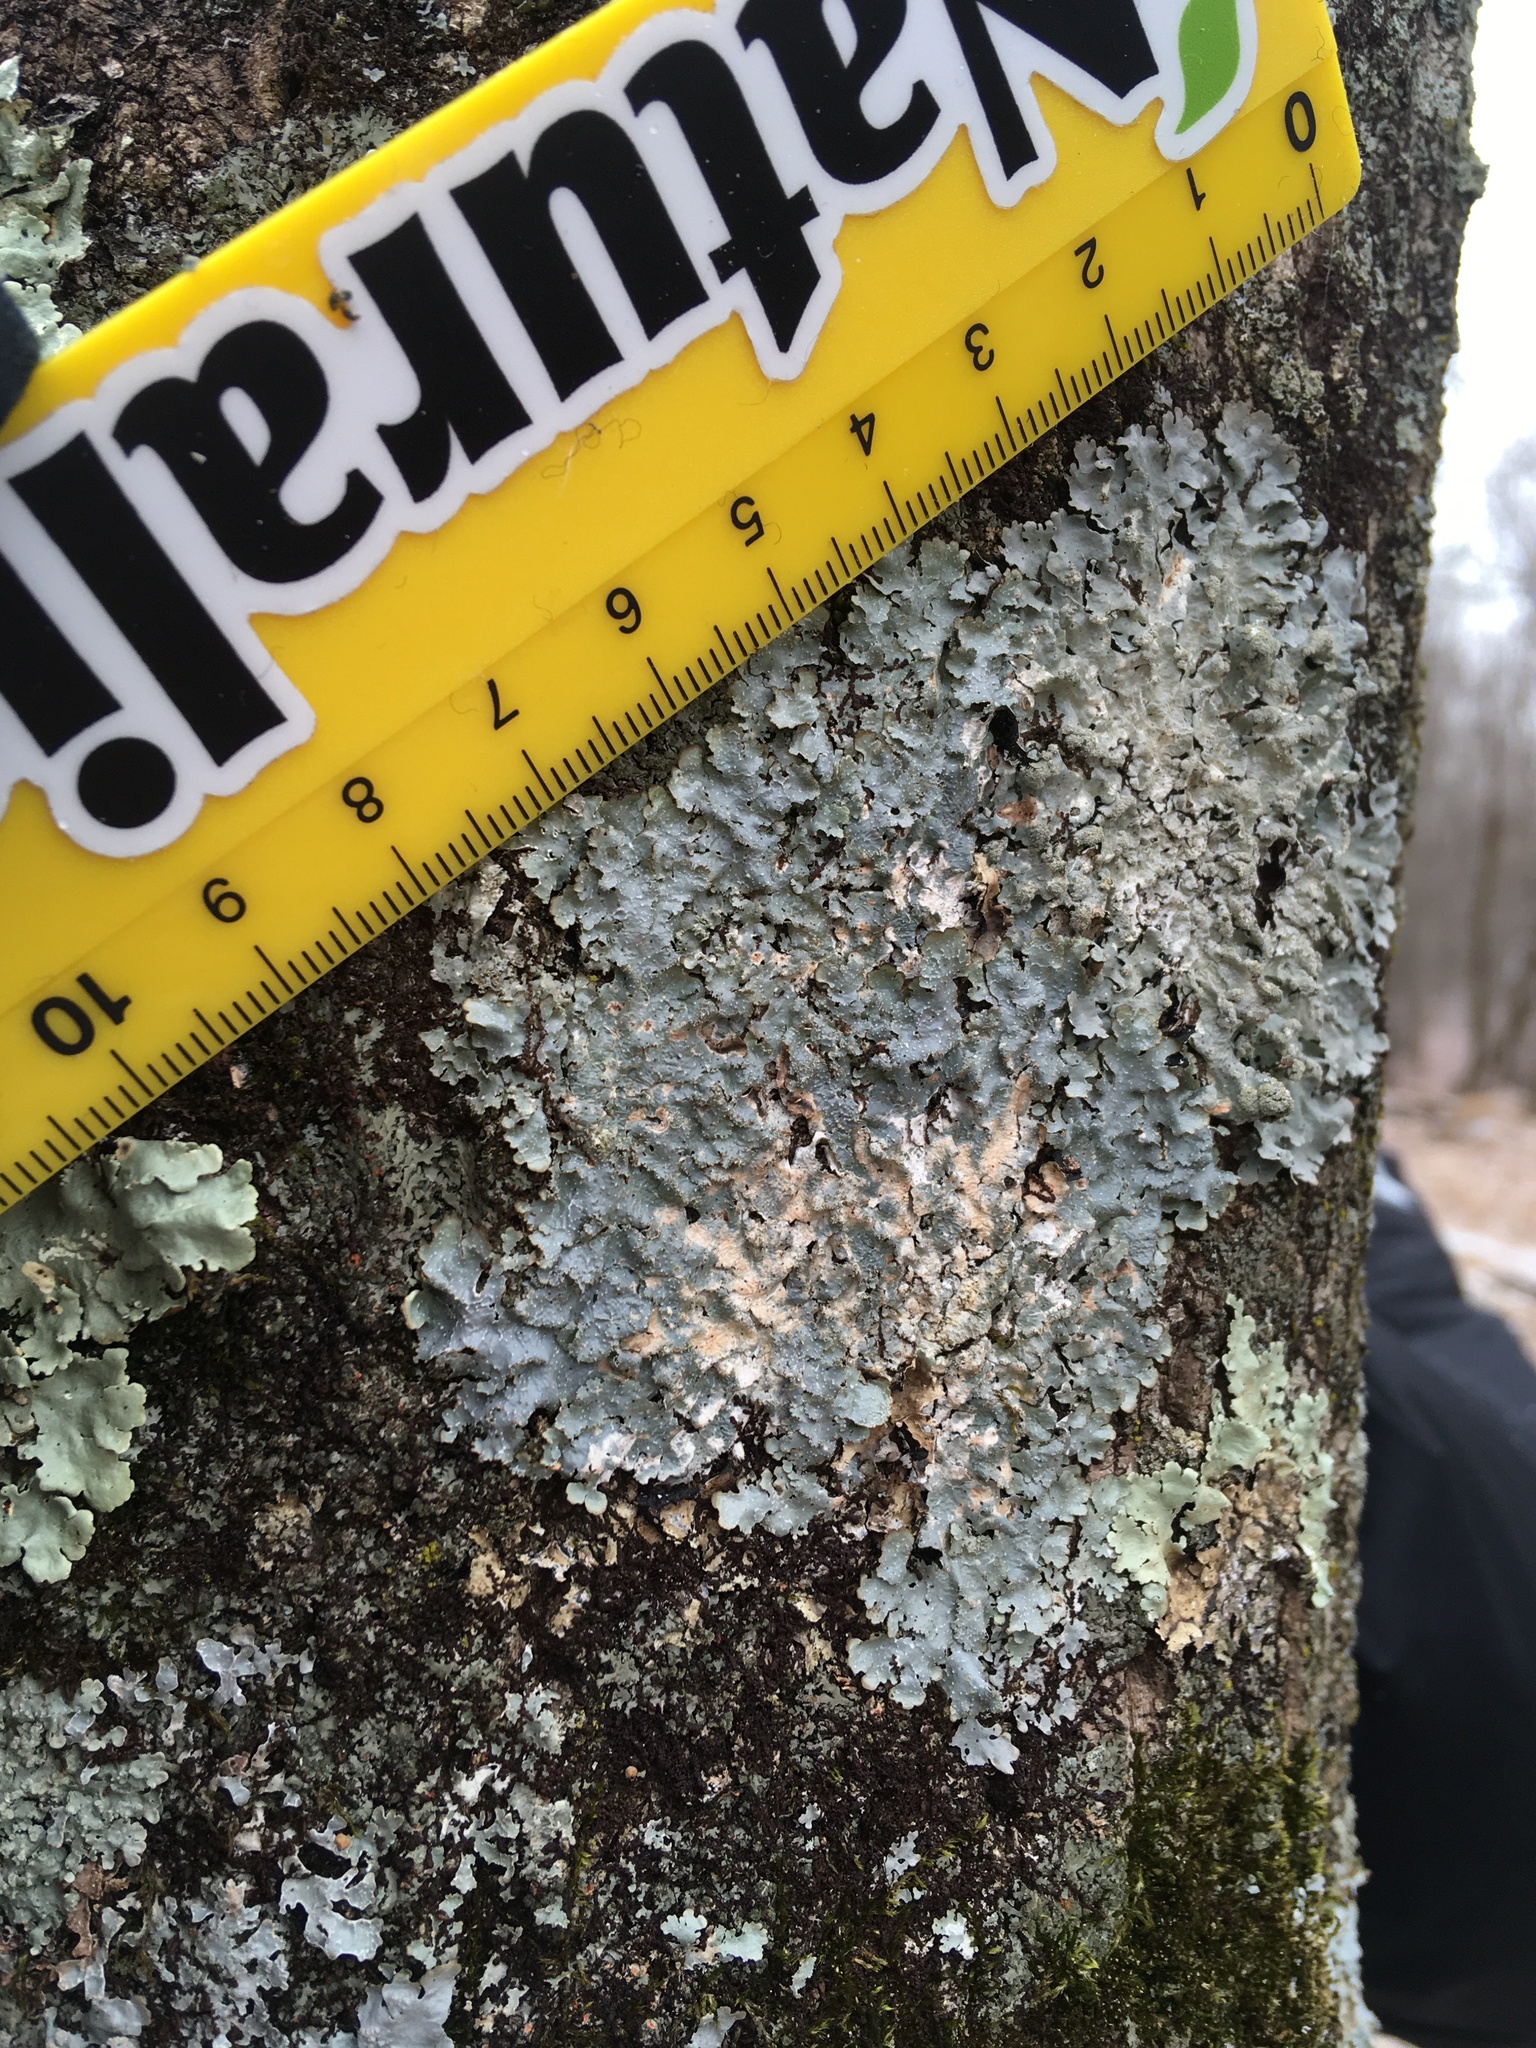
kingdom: Fungi
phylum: Ascomycota
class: Lecanoromycetes
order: Lecanorales
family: Parmeliaceae
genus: Punctelia
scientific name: Punctelia rudecta
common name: Rough speckled shield lichen
